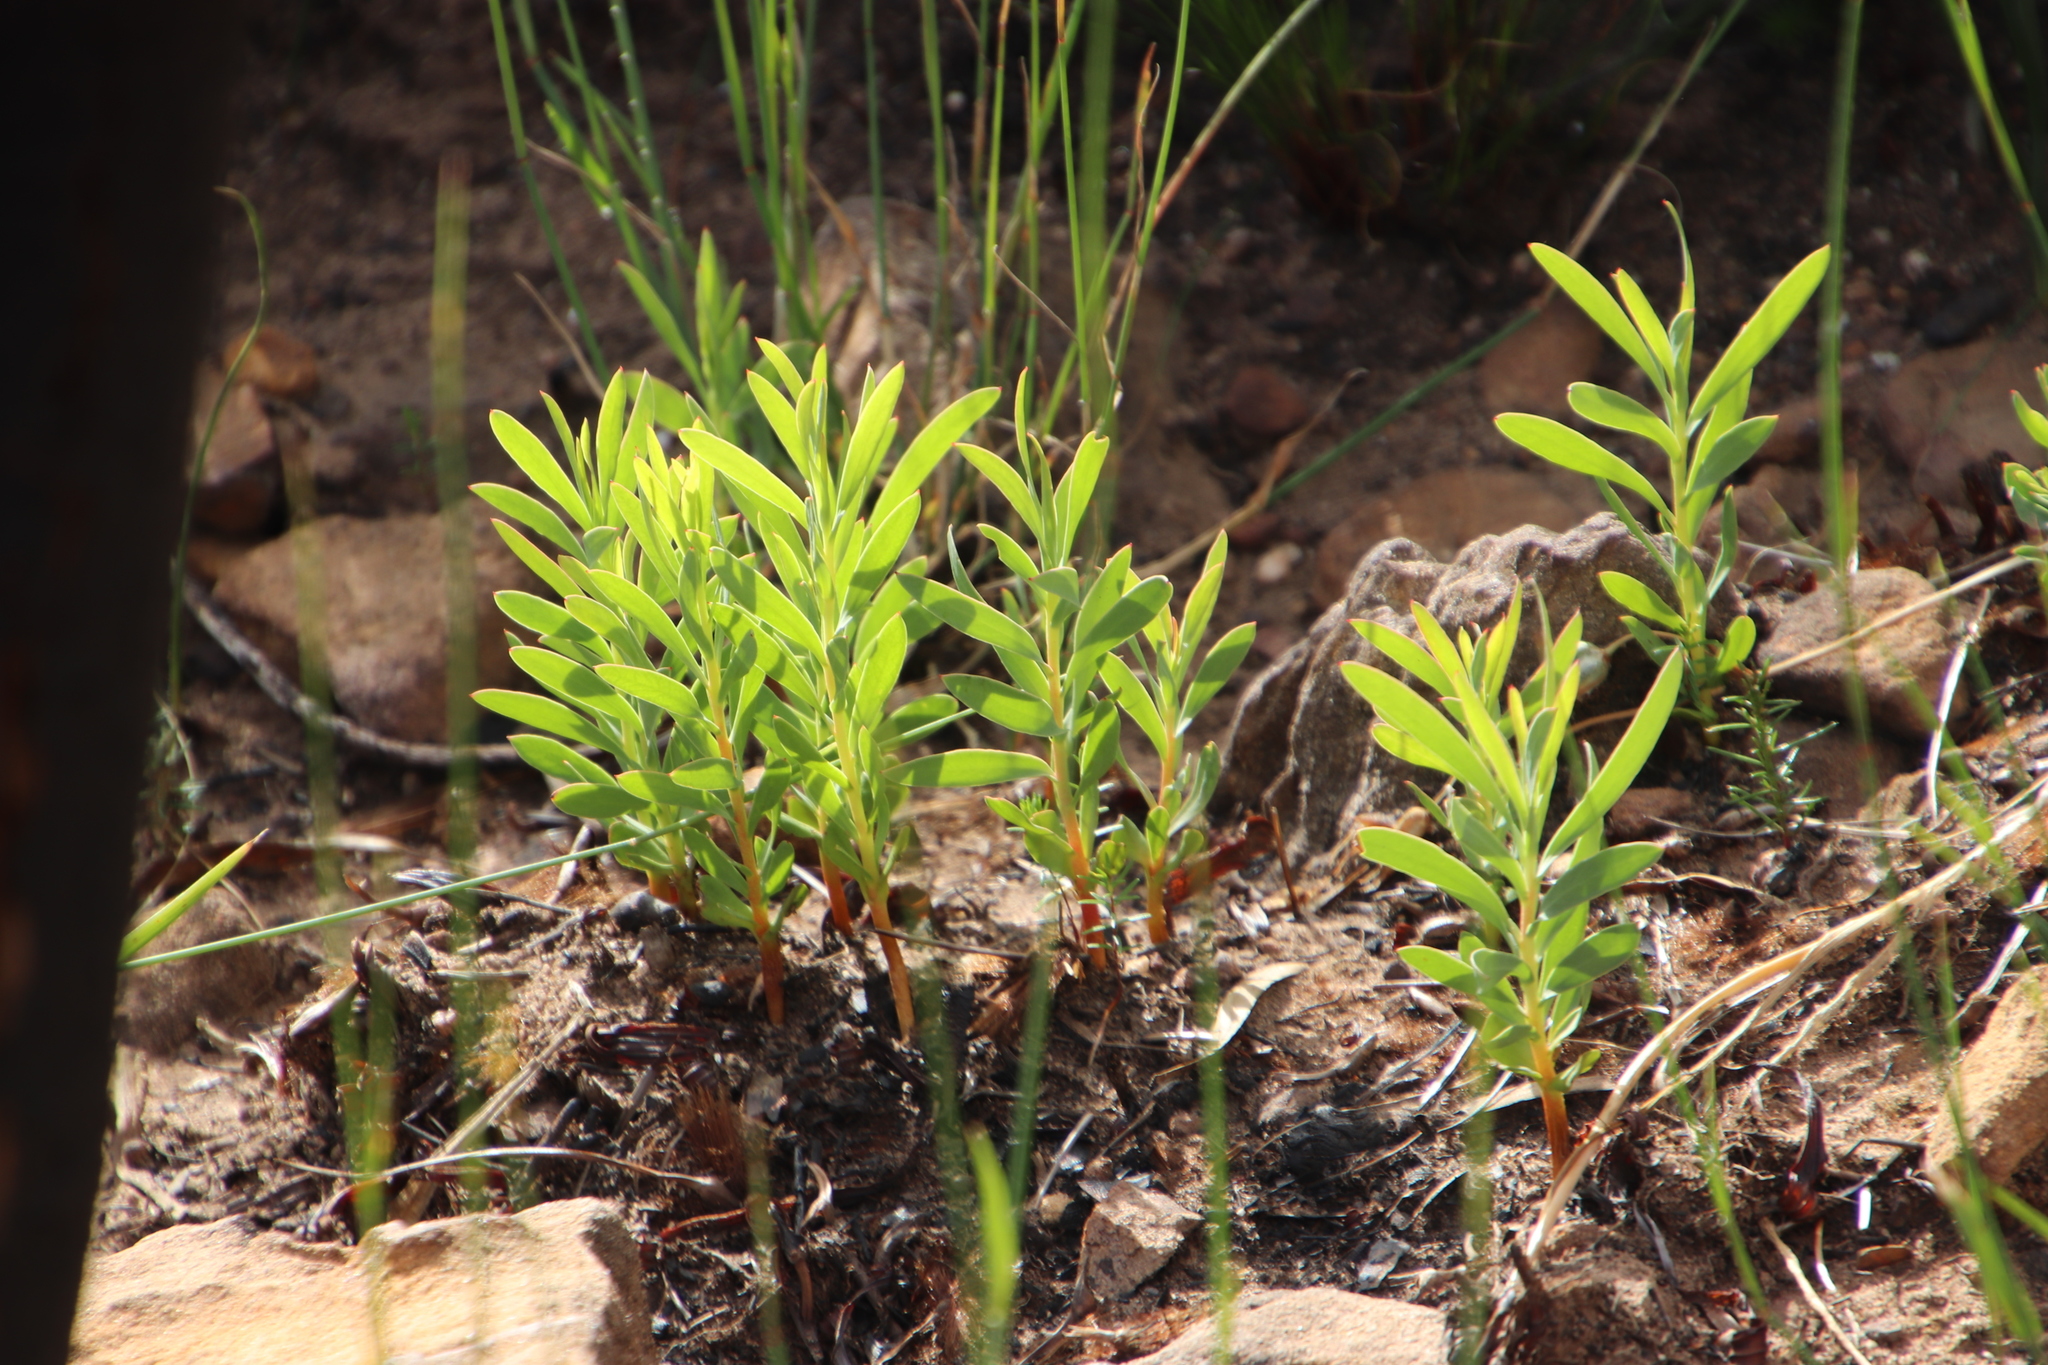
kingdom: Plantae
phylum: Tracheophyta
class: Magnoliopsida
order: Proteales
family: Proteaceae
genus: Protea
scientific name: Protea repens
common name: Sugarbush
